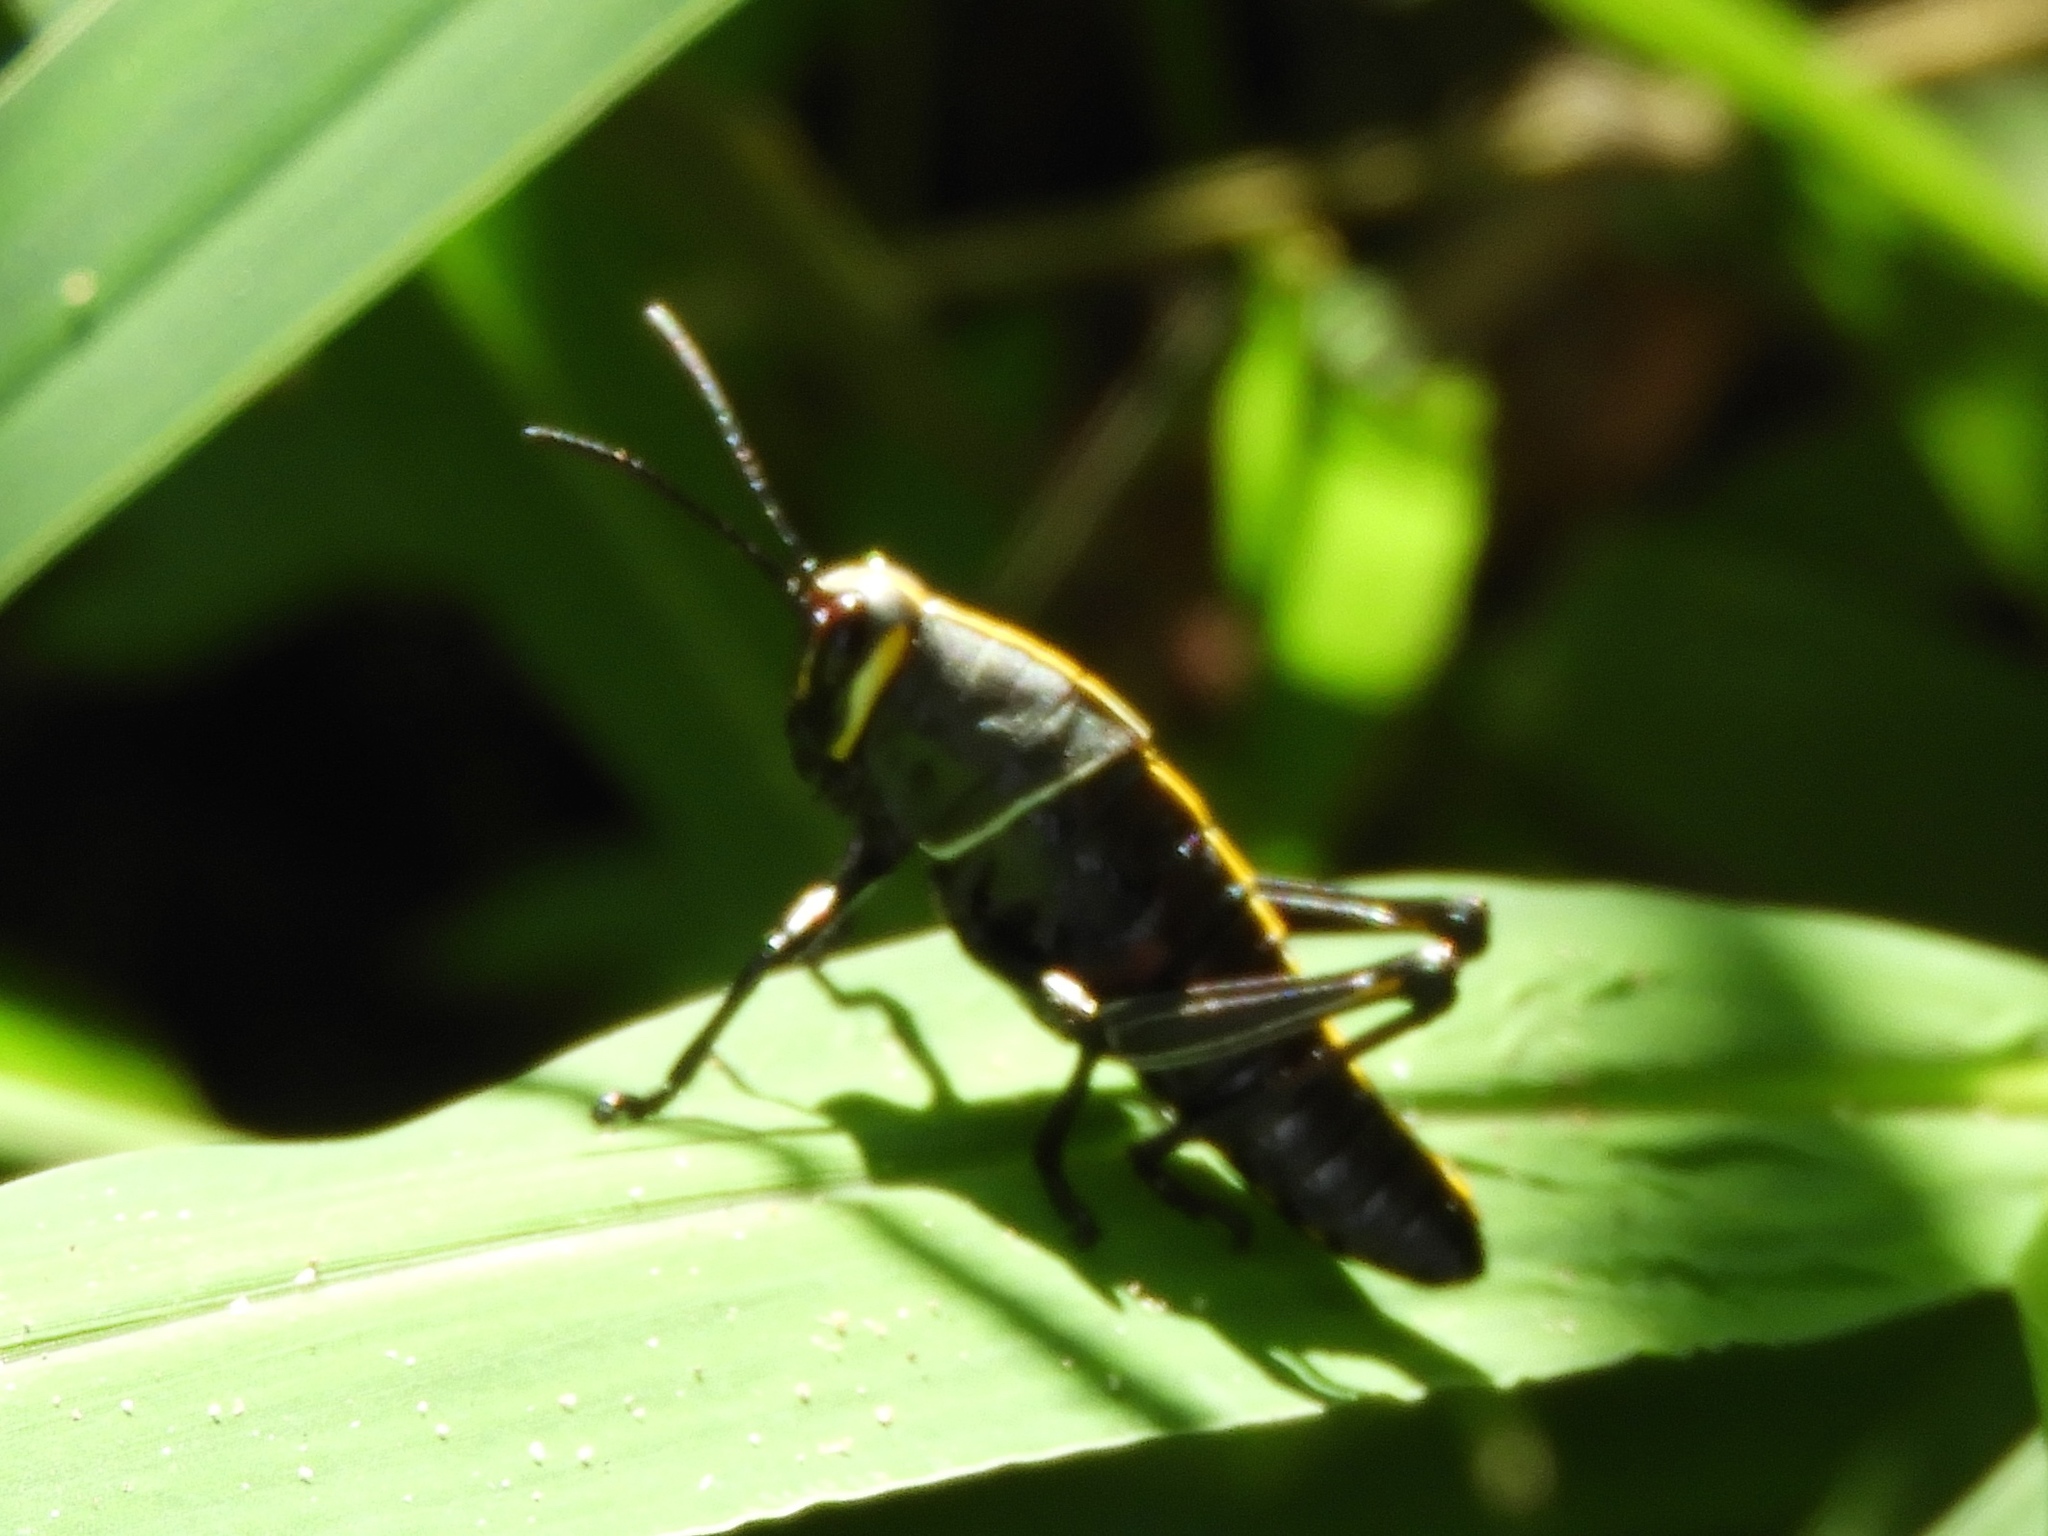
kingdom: Animalia
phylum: Arthropoda
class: Insecta
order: Orthoptera
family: Romaleidae
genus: Romalea
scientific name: Romalea
